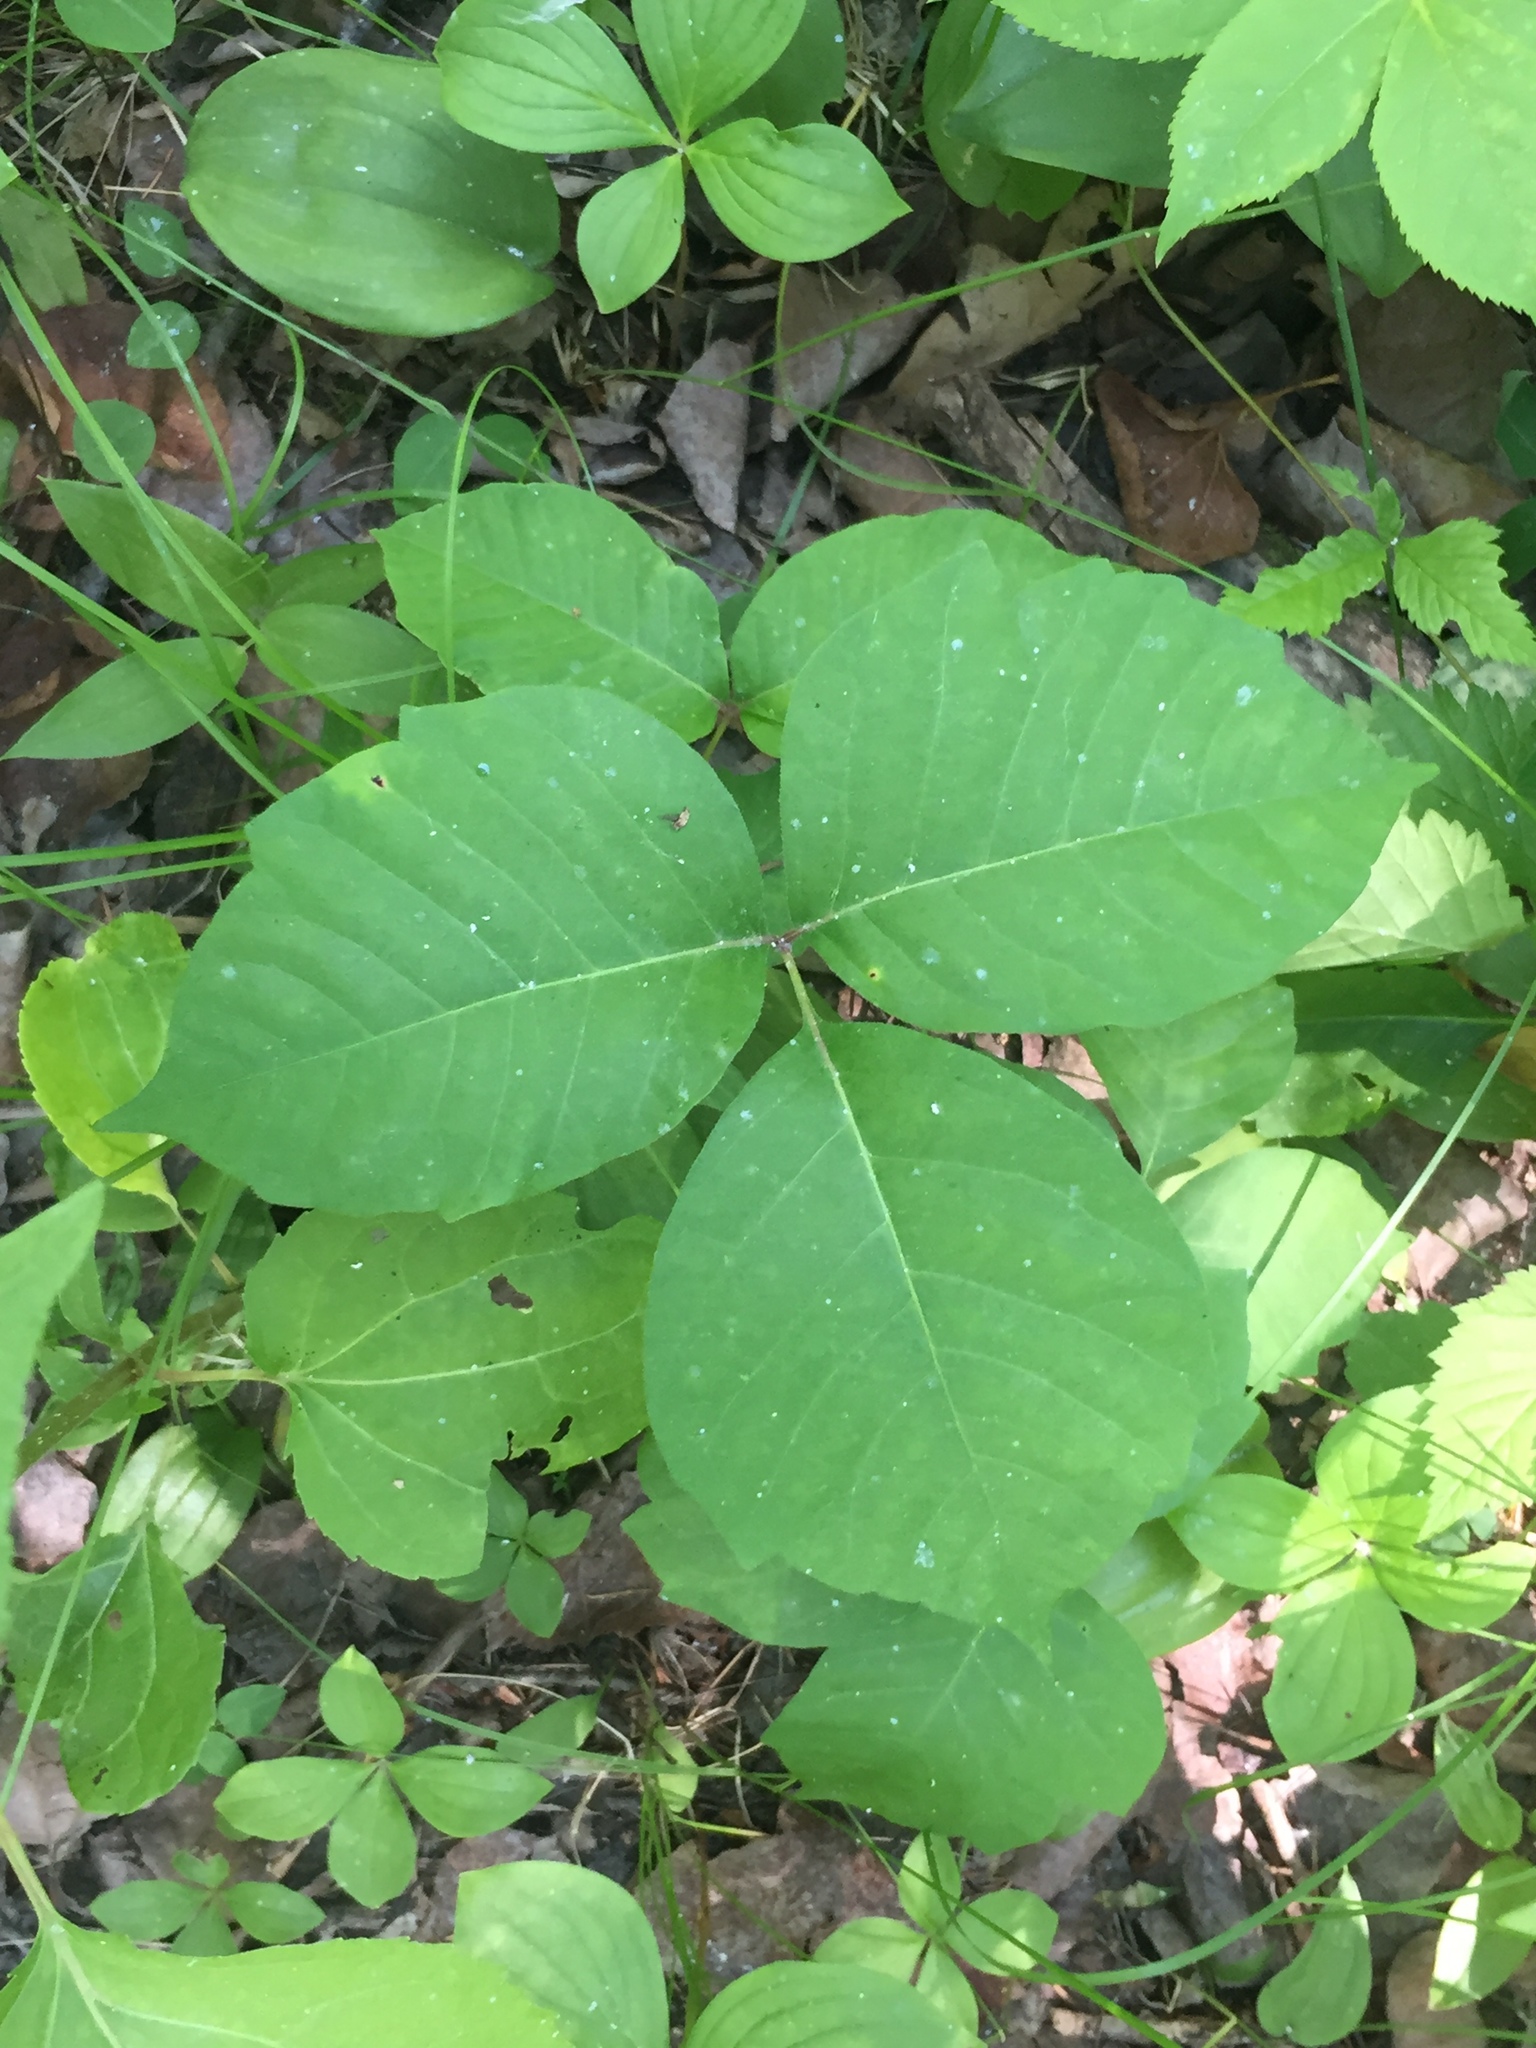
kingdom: Plantae
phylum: Tracheophyta
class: Magnoliopsida
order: Sapindales
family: Anacardiaceae
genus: Toxicodendron
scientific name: Toxicodendron rydbergii
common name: Rydberg's poison-ivy
